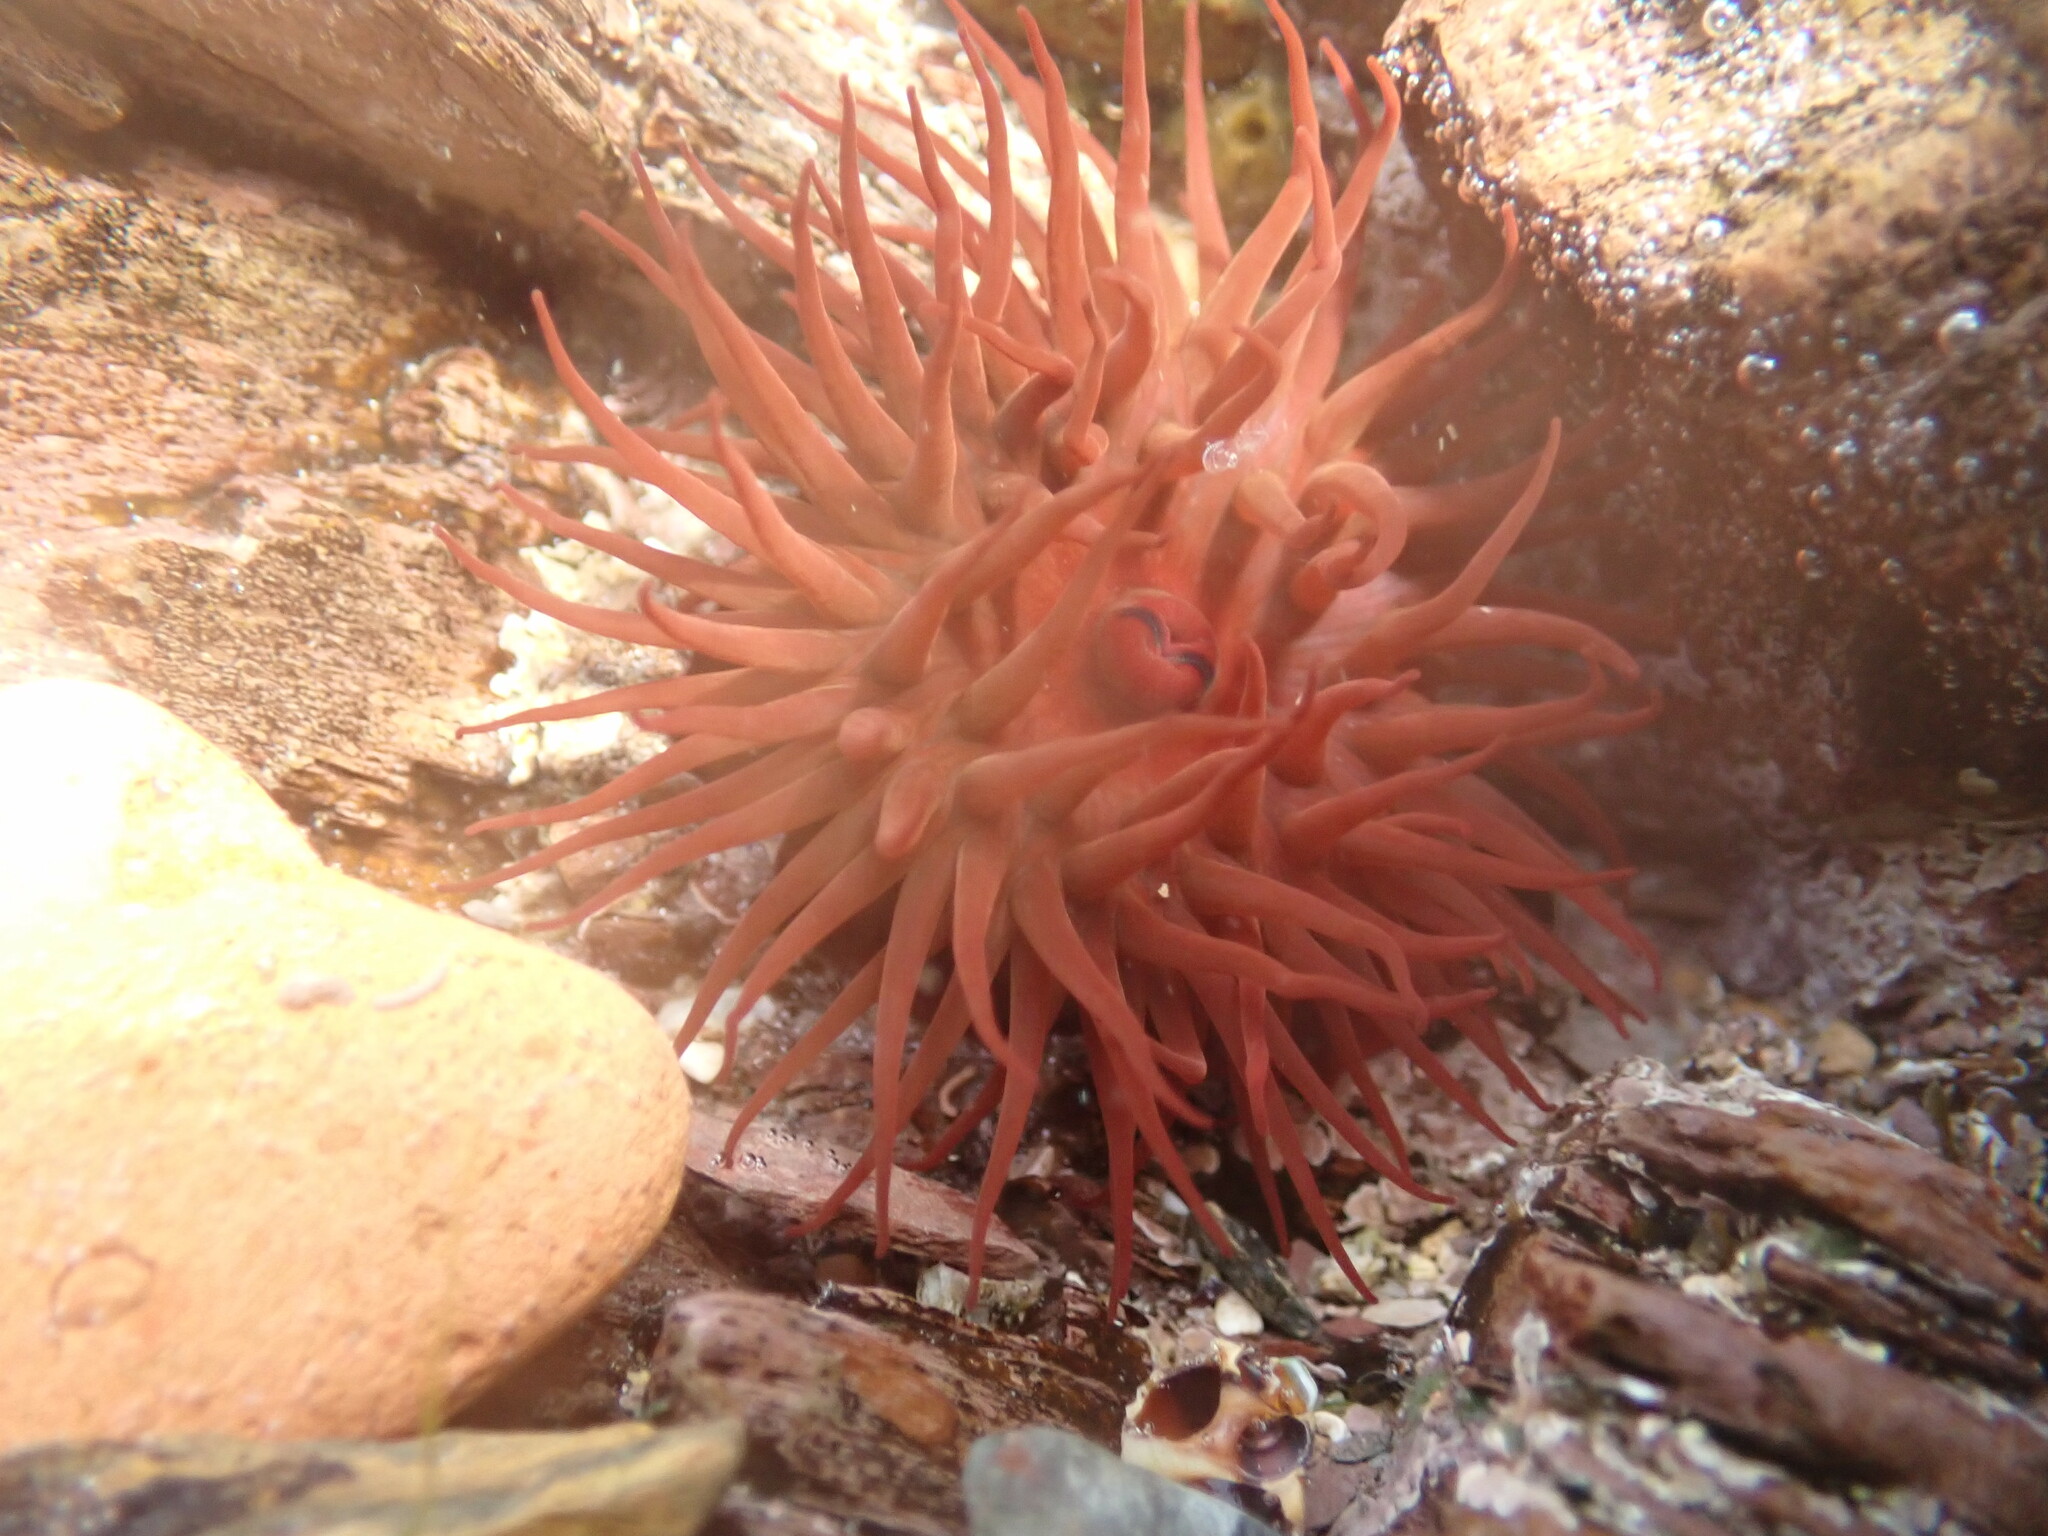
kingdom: Animalia
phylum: Cnidaria
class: Anthozoa
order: Actiniaria
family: Actiniidae
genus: Actinia
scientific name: Actinia equina
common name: Beadlet anemone
